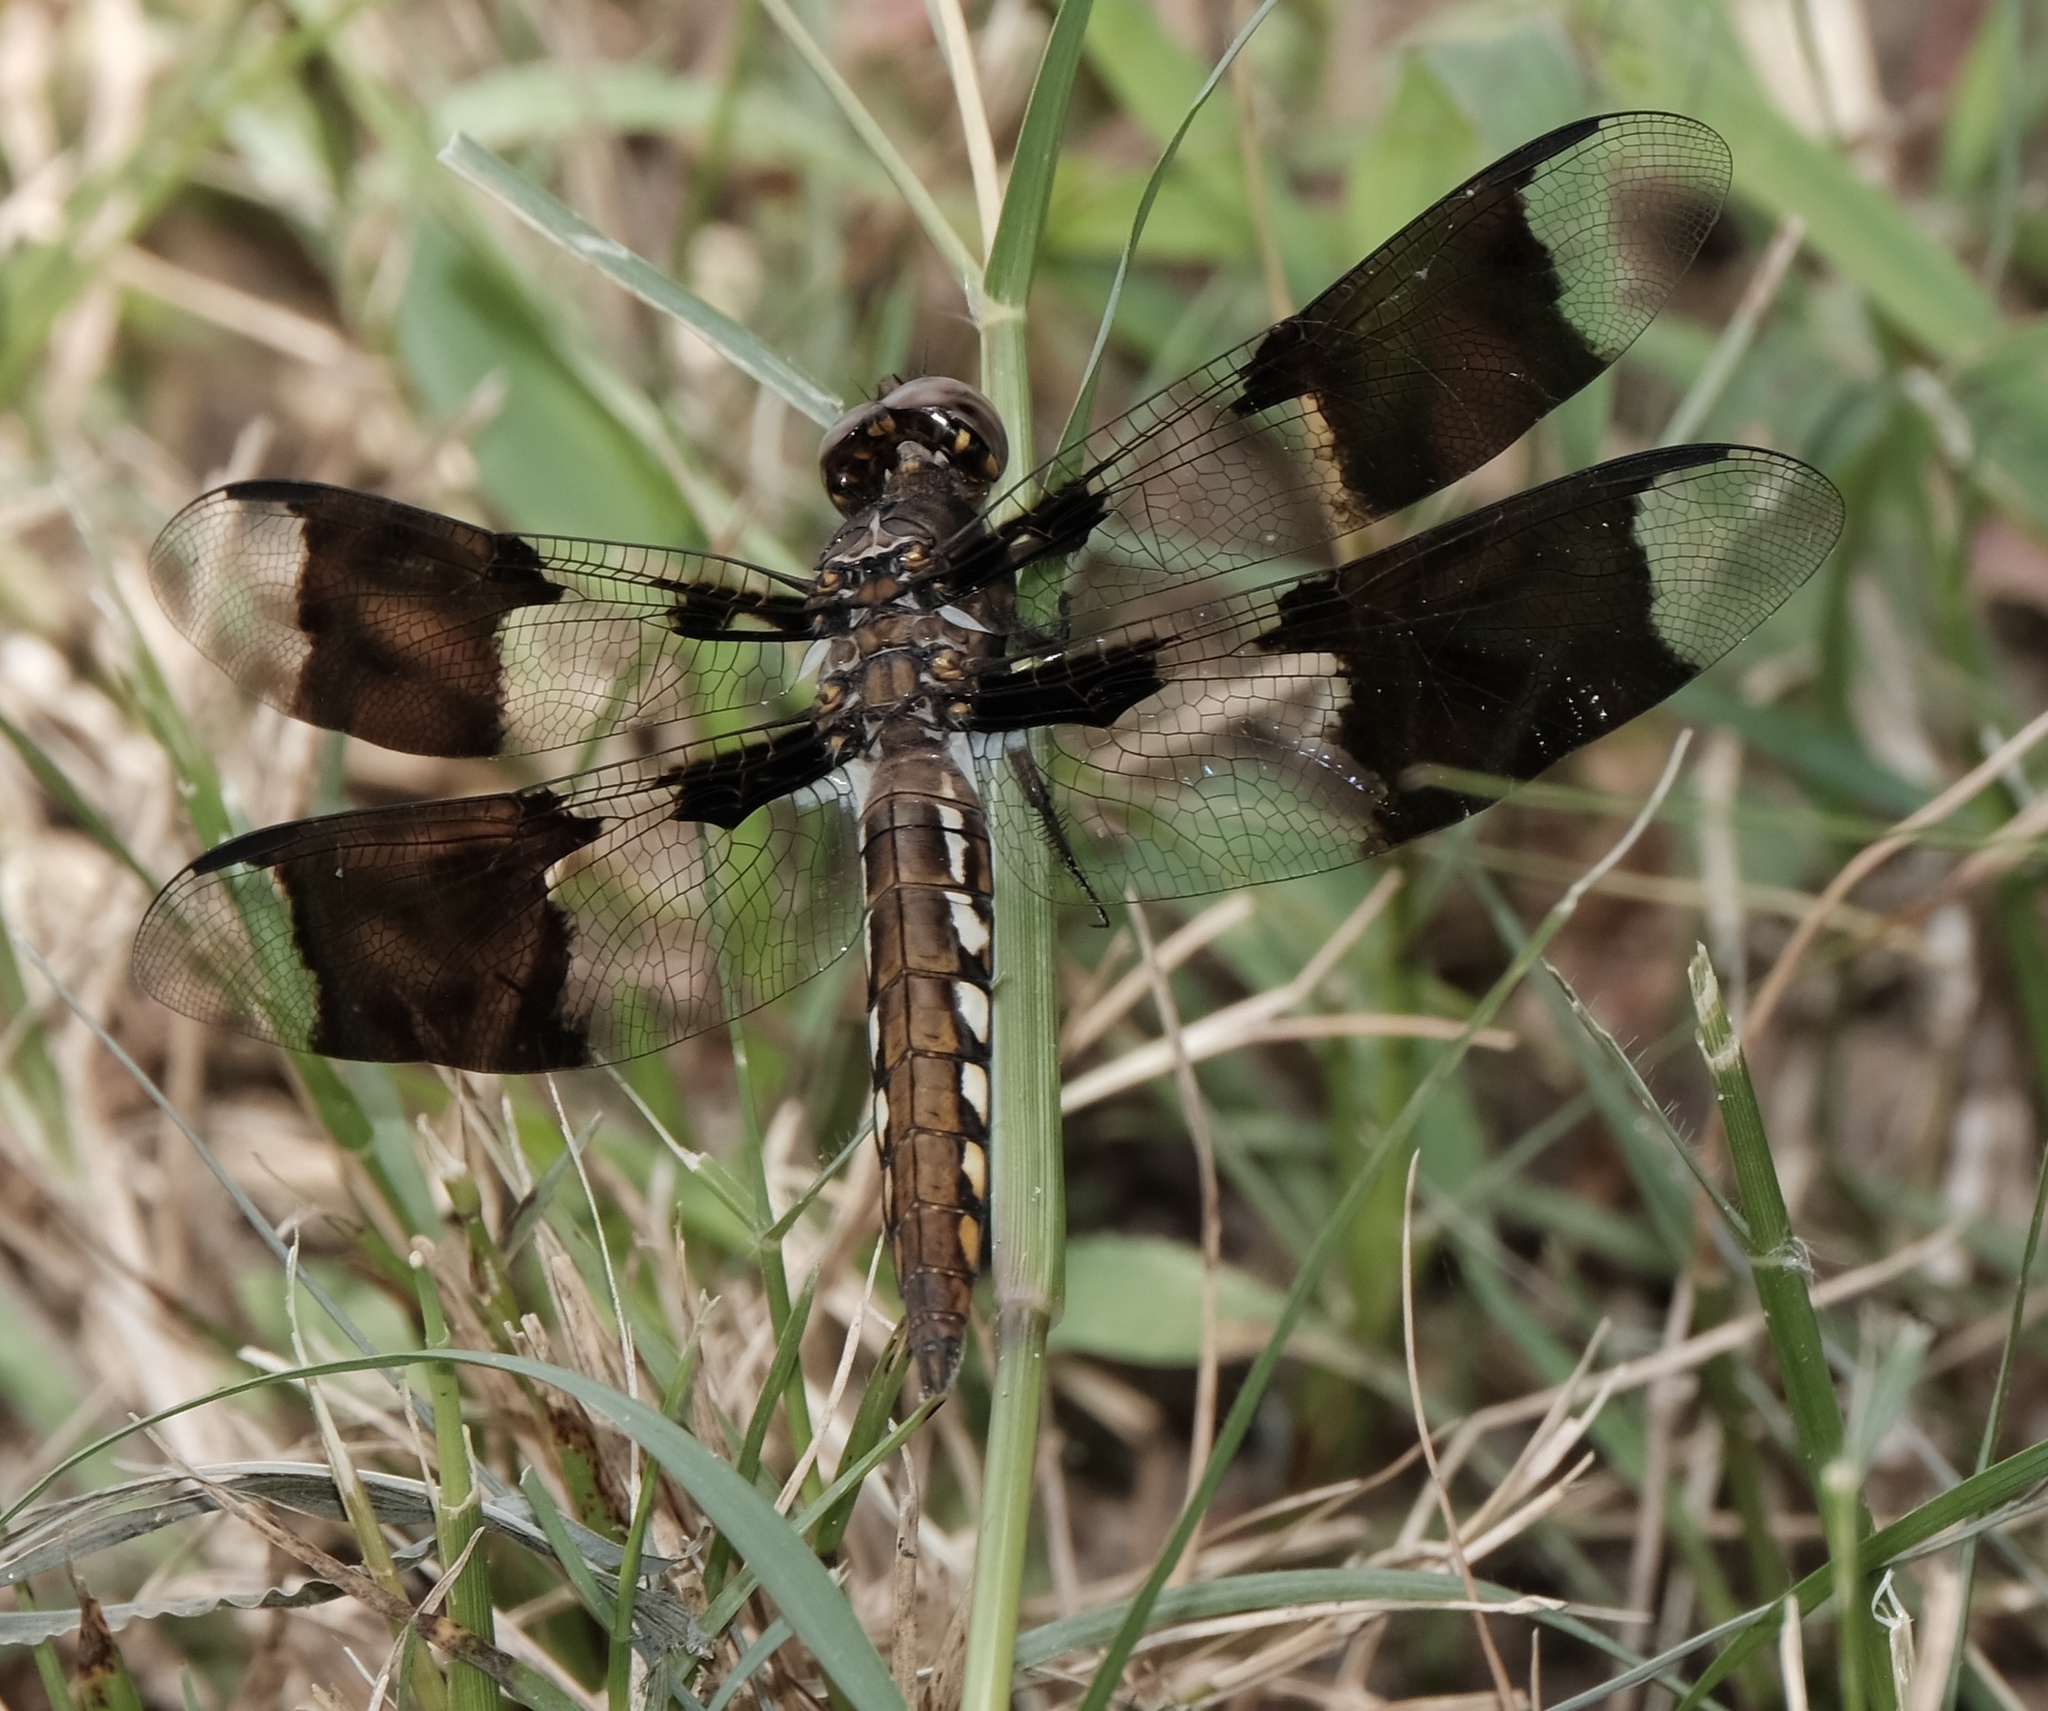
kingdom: Animalia
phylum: Arthropoda
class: Insecta
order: Odonata
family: Libellulidae
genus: Plathemis
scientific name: Plathemis lydia
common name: Common whitetail
